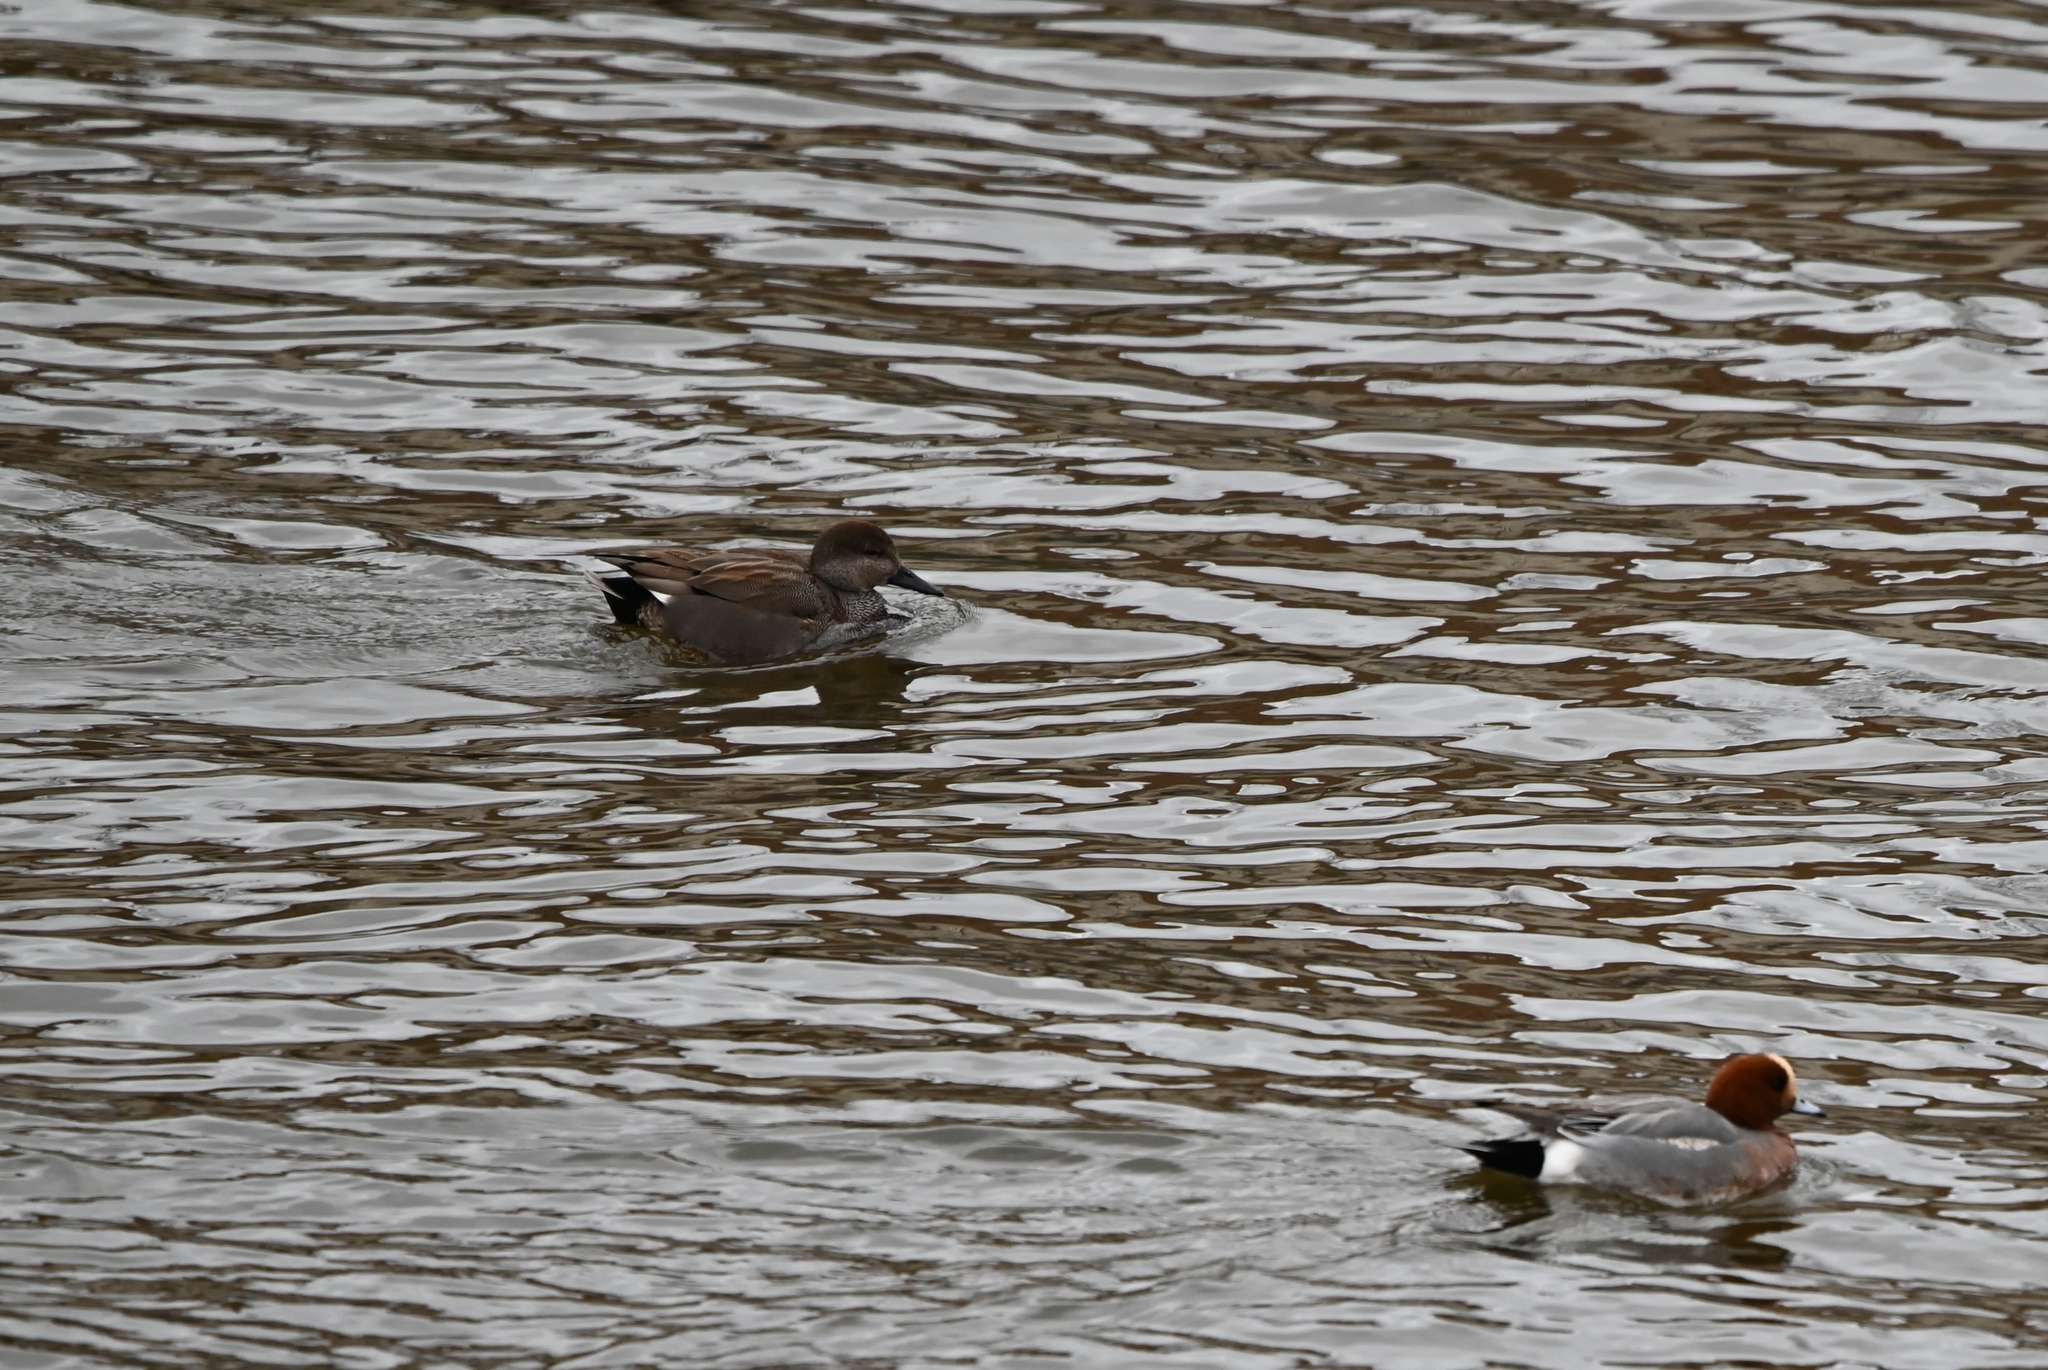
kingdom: Animalia
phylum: Chordata
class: Aves
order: Anseriformes
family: Anatidae
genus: Mareca
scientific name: Mareca strepera
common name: Gadwall
